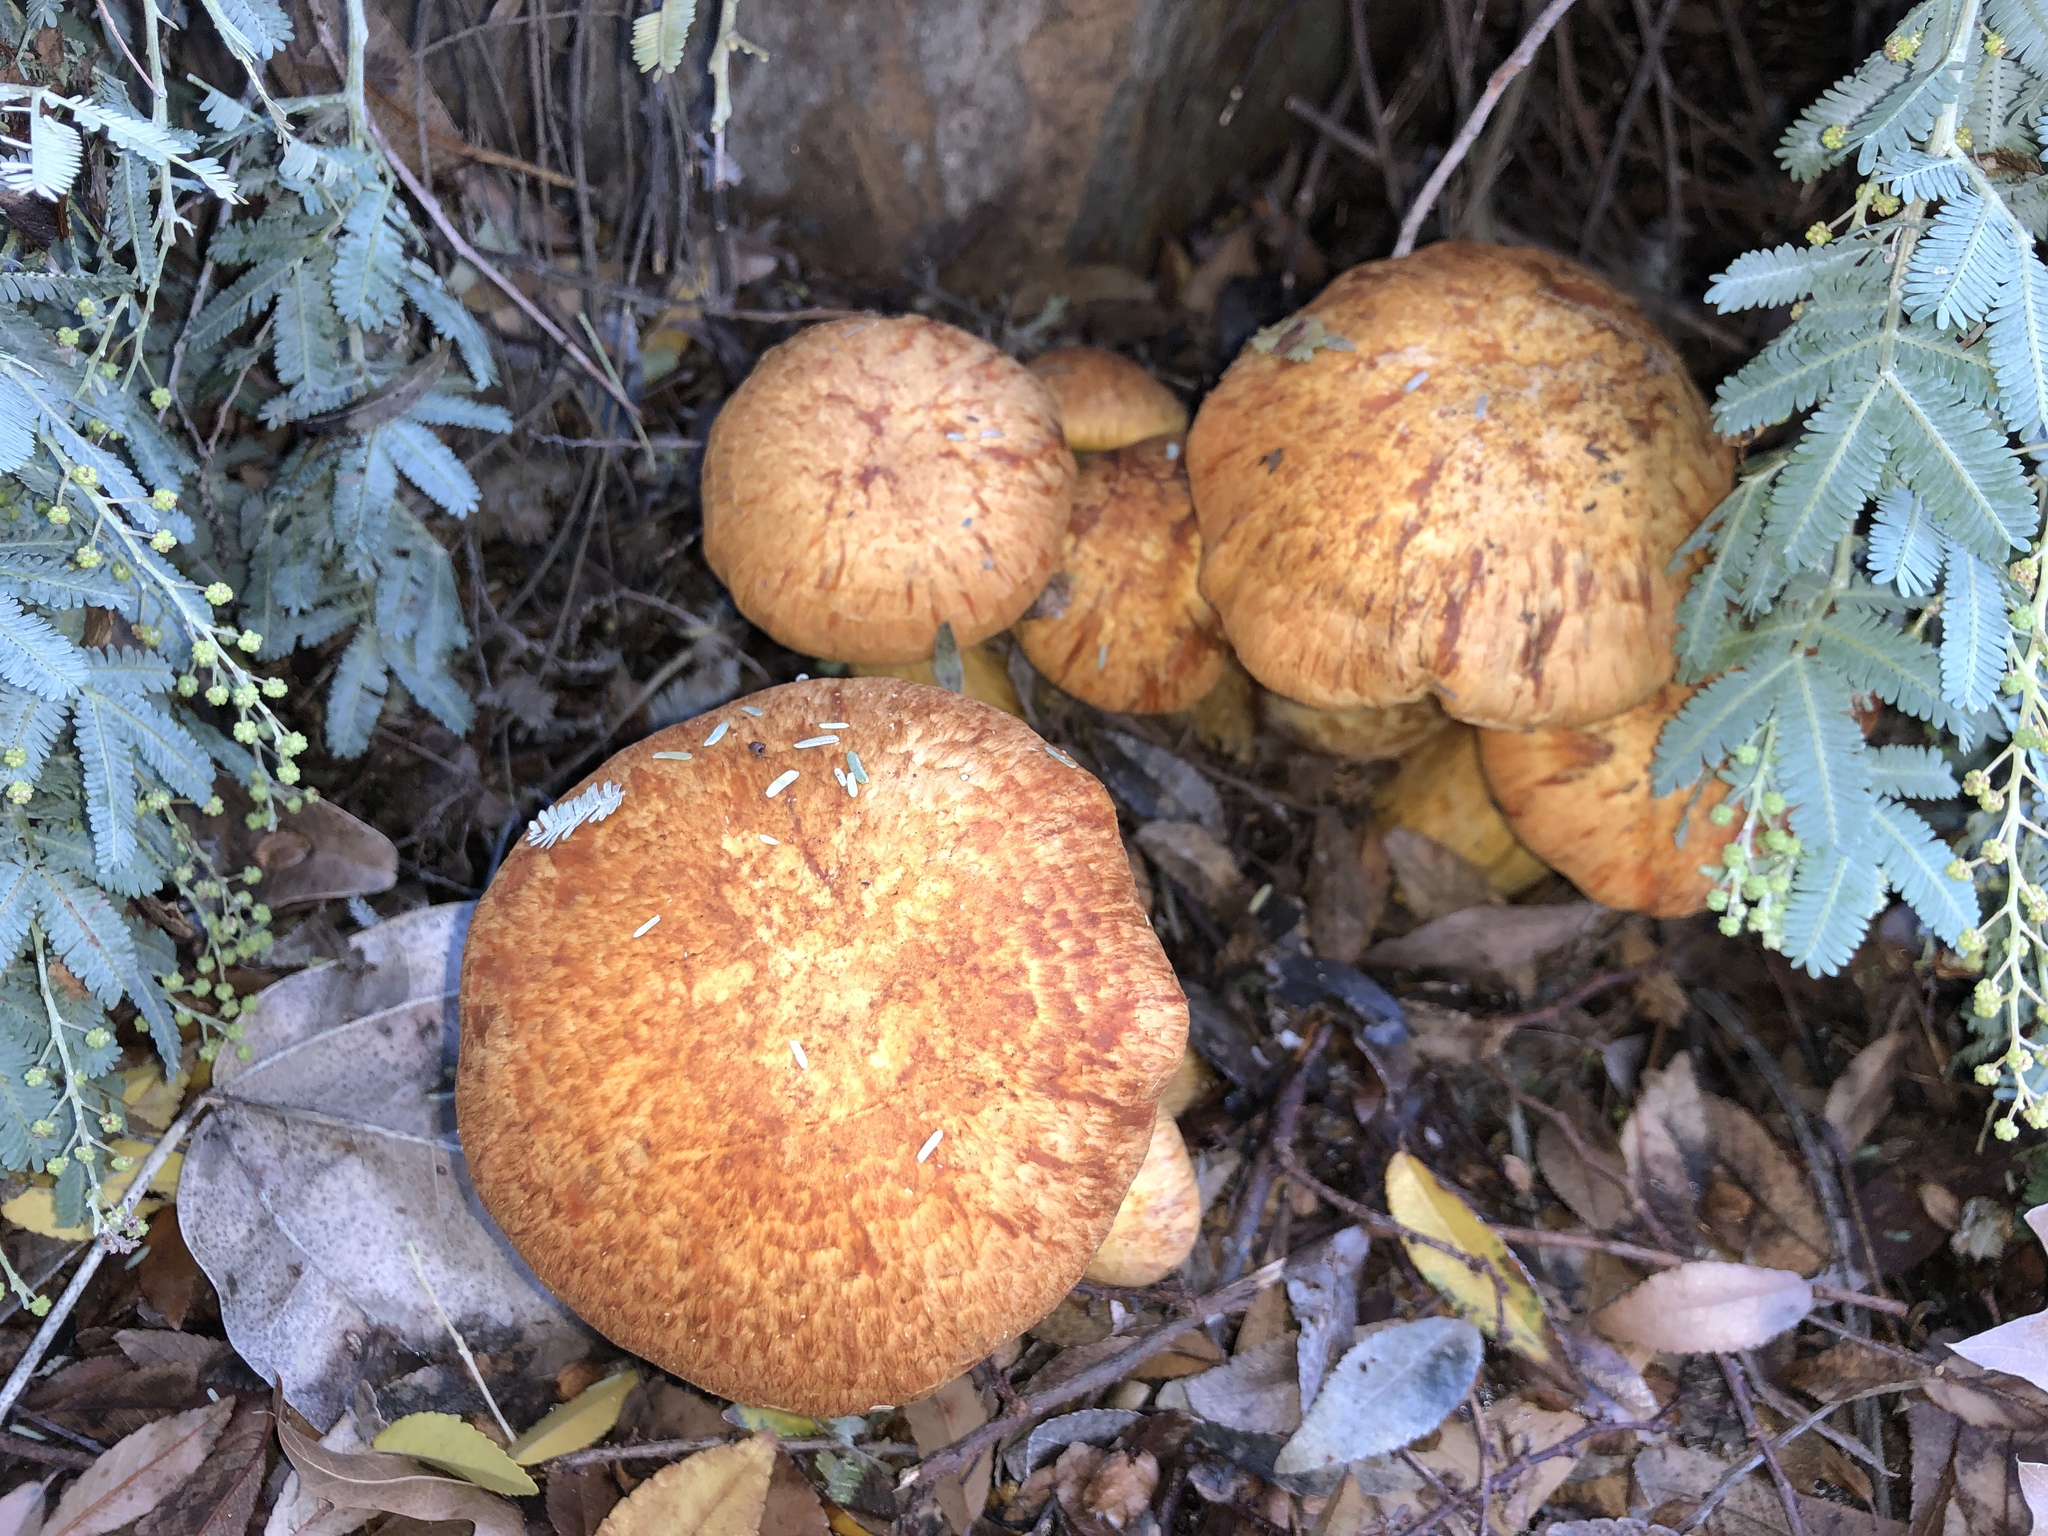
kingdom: Fungi
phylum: Basidiomycota
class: Agaricomycetes
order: Agaricales
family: Hymenogastraceae
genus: Gymnopilus
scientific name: Gymnopilus junonius
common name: Spectacular rustgill
